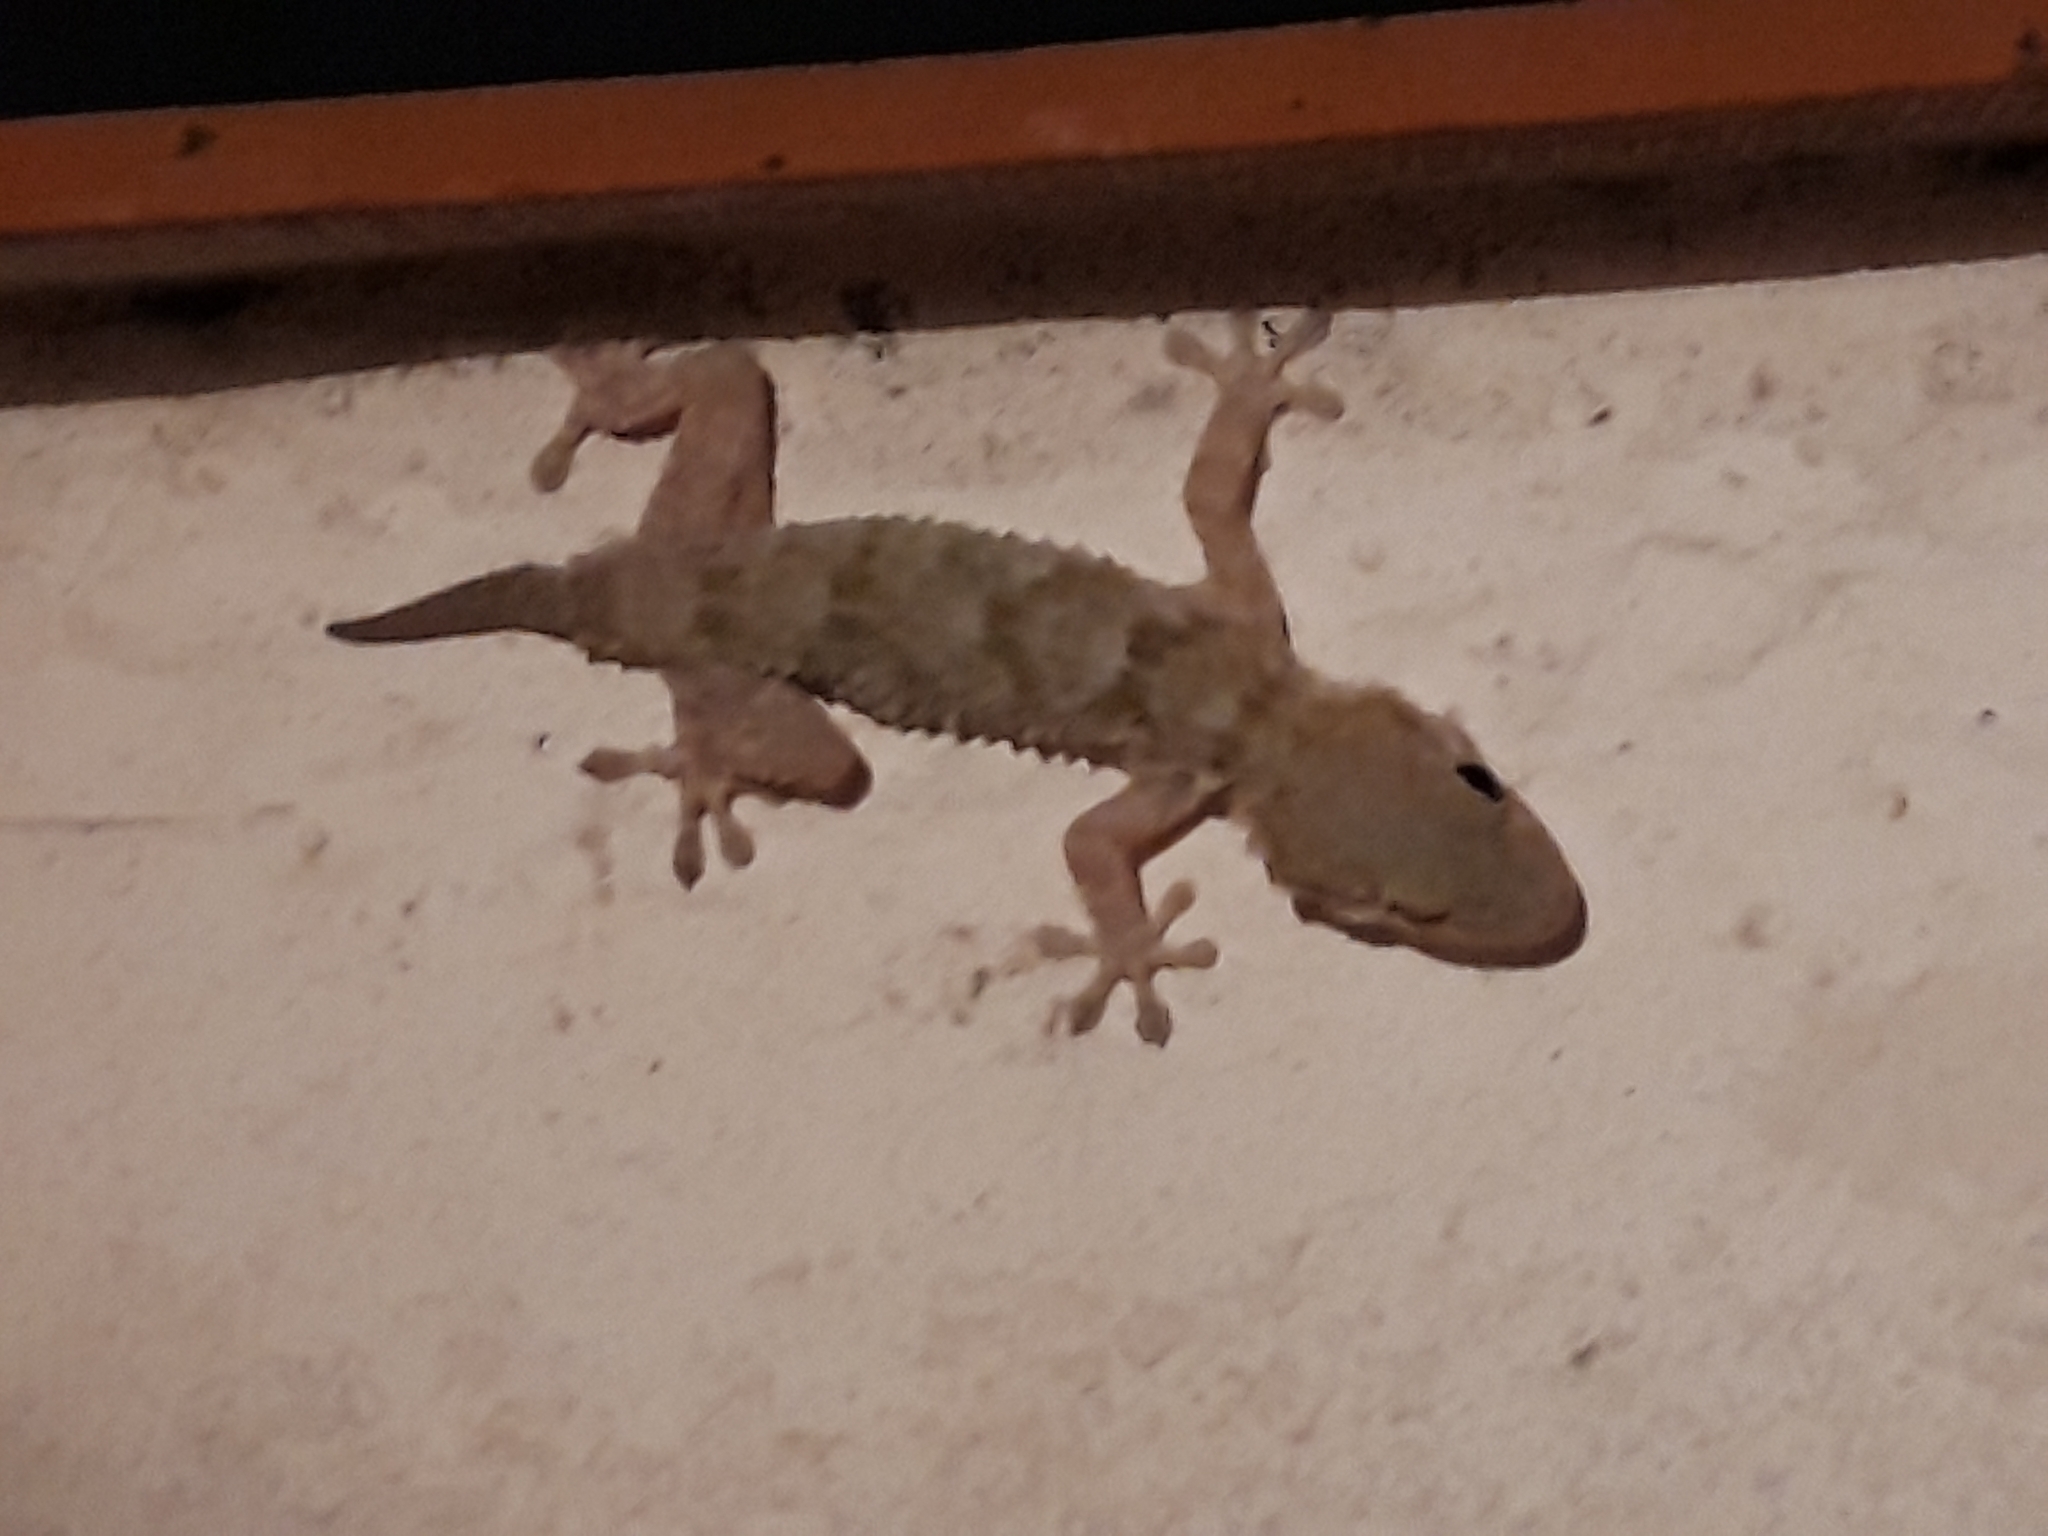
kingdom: Animalia
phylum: Chordata
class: Squamata
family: Phyllodactylidae
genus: Tarentola
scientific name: Tarentola mauritanica
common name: Moorish gecko
